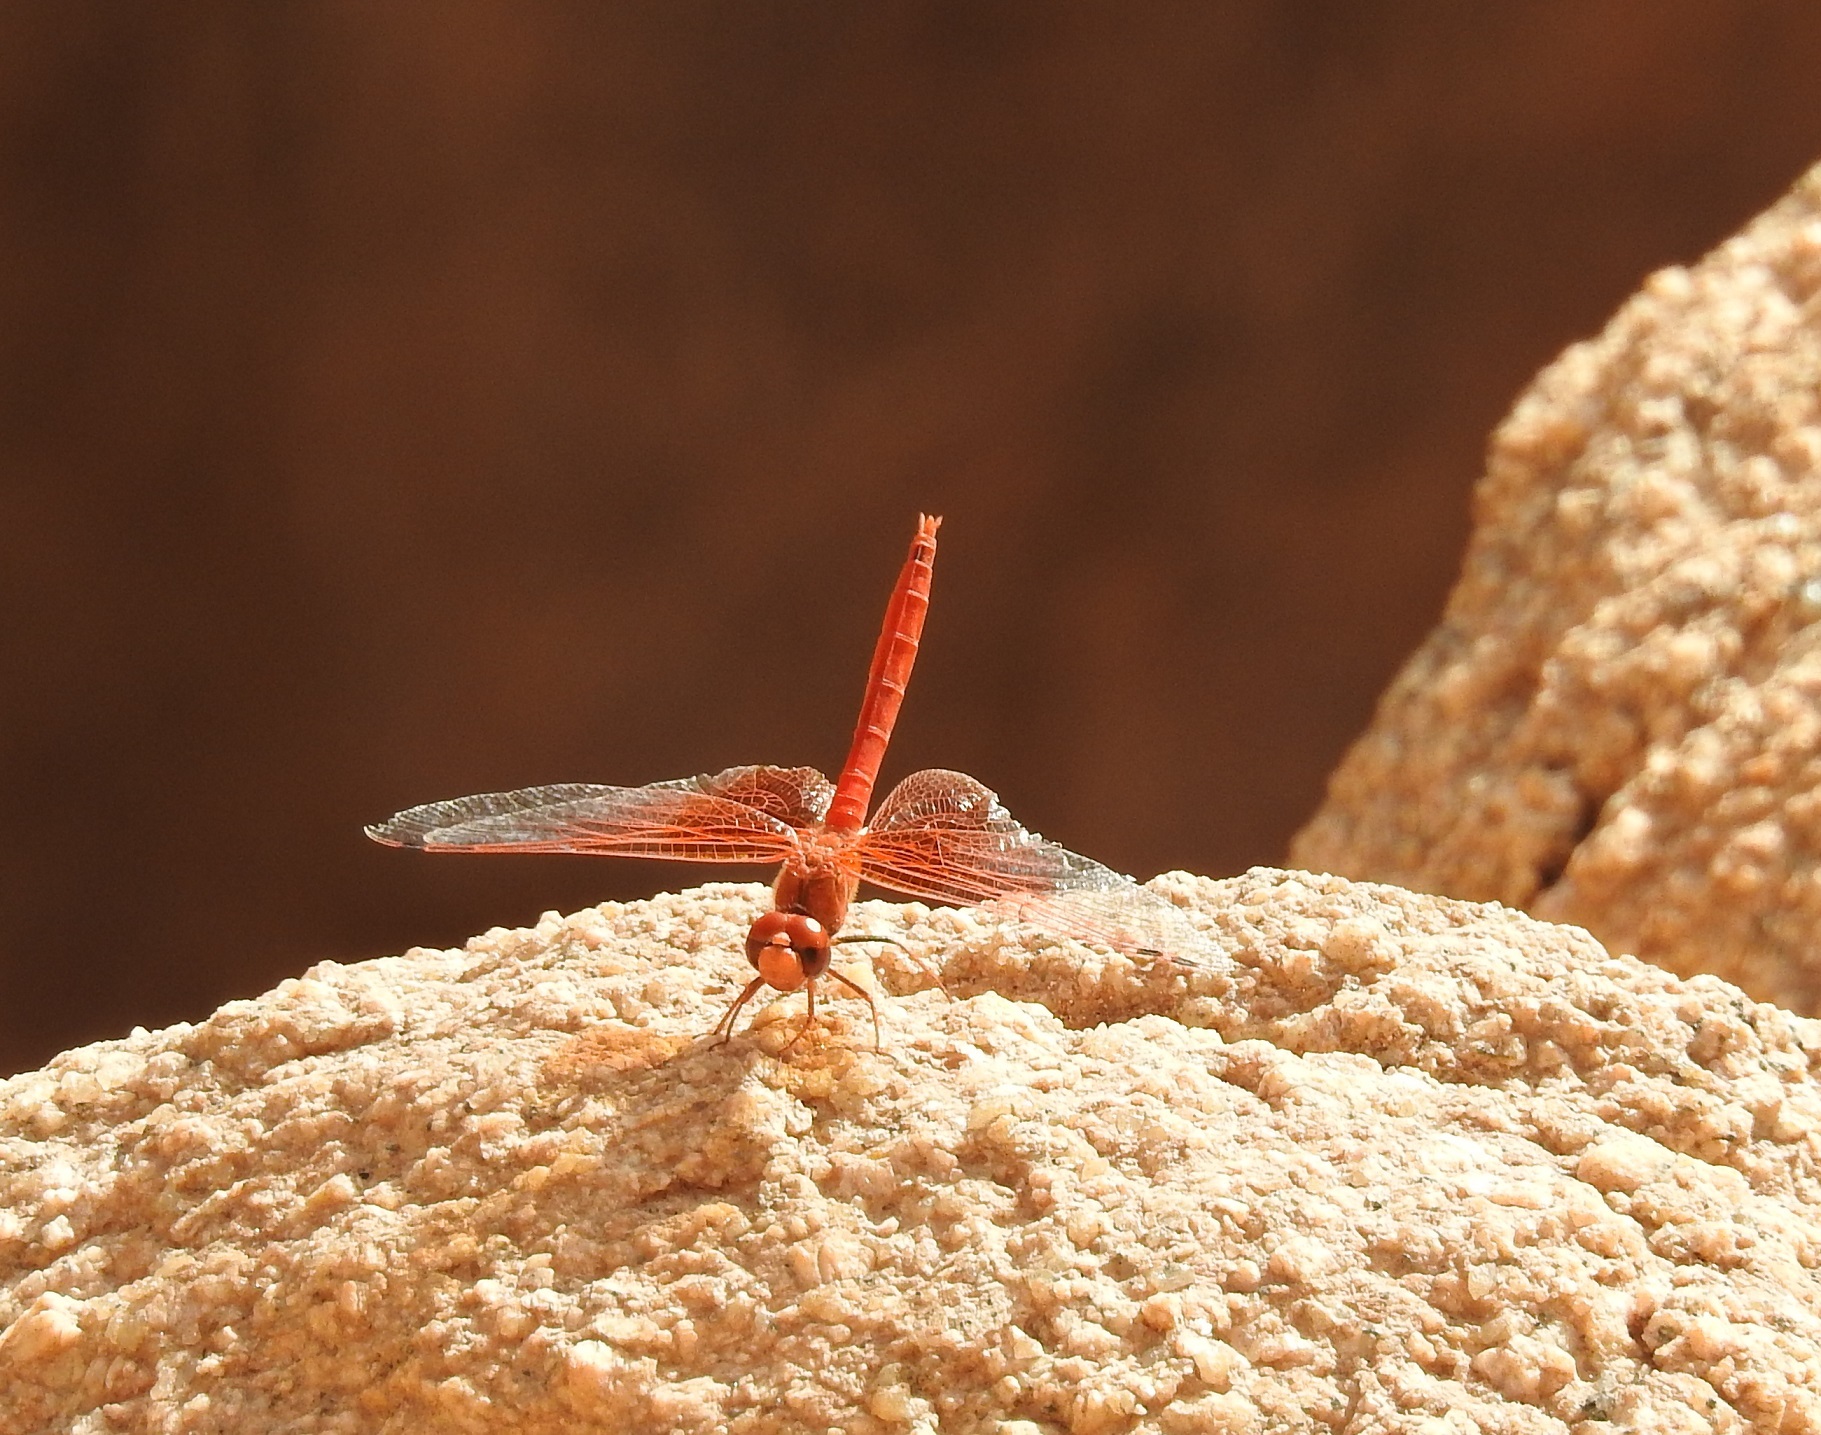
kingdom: Animalia
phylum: Arthropoda
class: Insecta
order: Odonata
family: Libellulidae
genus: Trithemis
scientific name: Trithemis kirbyi
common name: Kirby's dropwing
